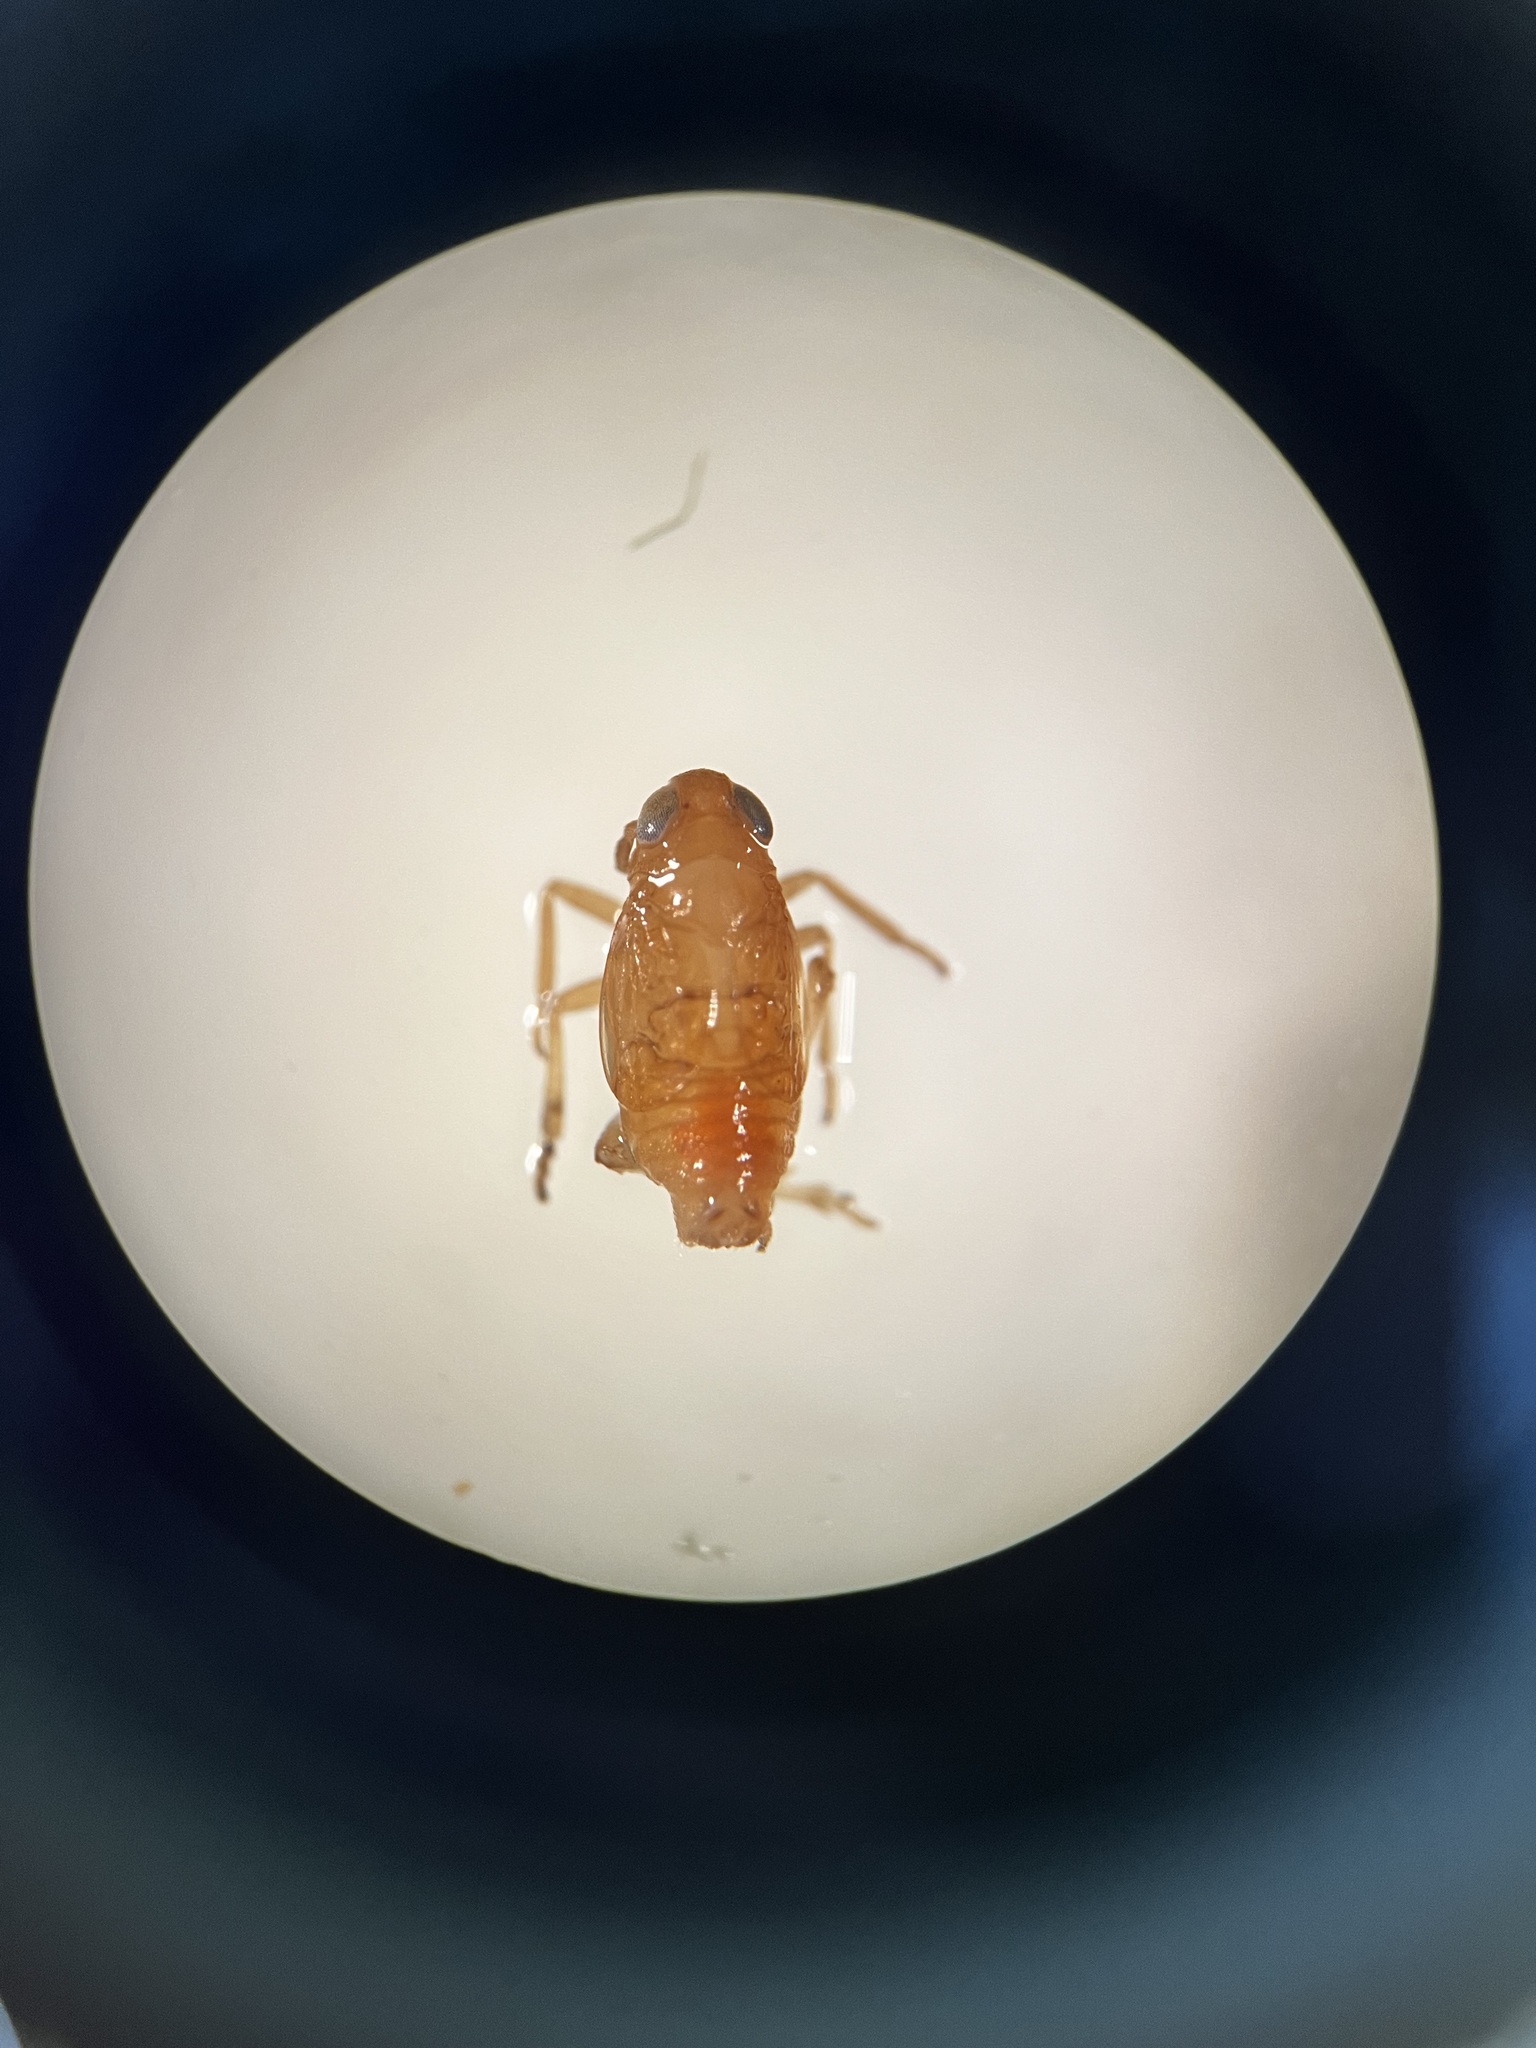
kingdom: Animalia
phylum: Arthropoda
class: Insecta
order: Hemiptera
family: Delphacidae
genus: Xanthodelphax
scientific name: Xanthodelphax straminea
